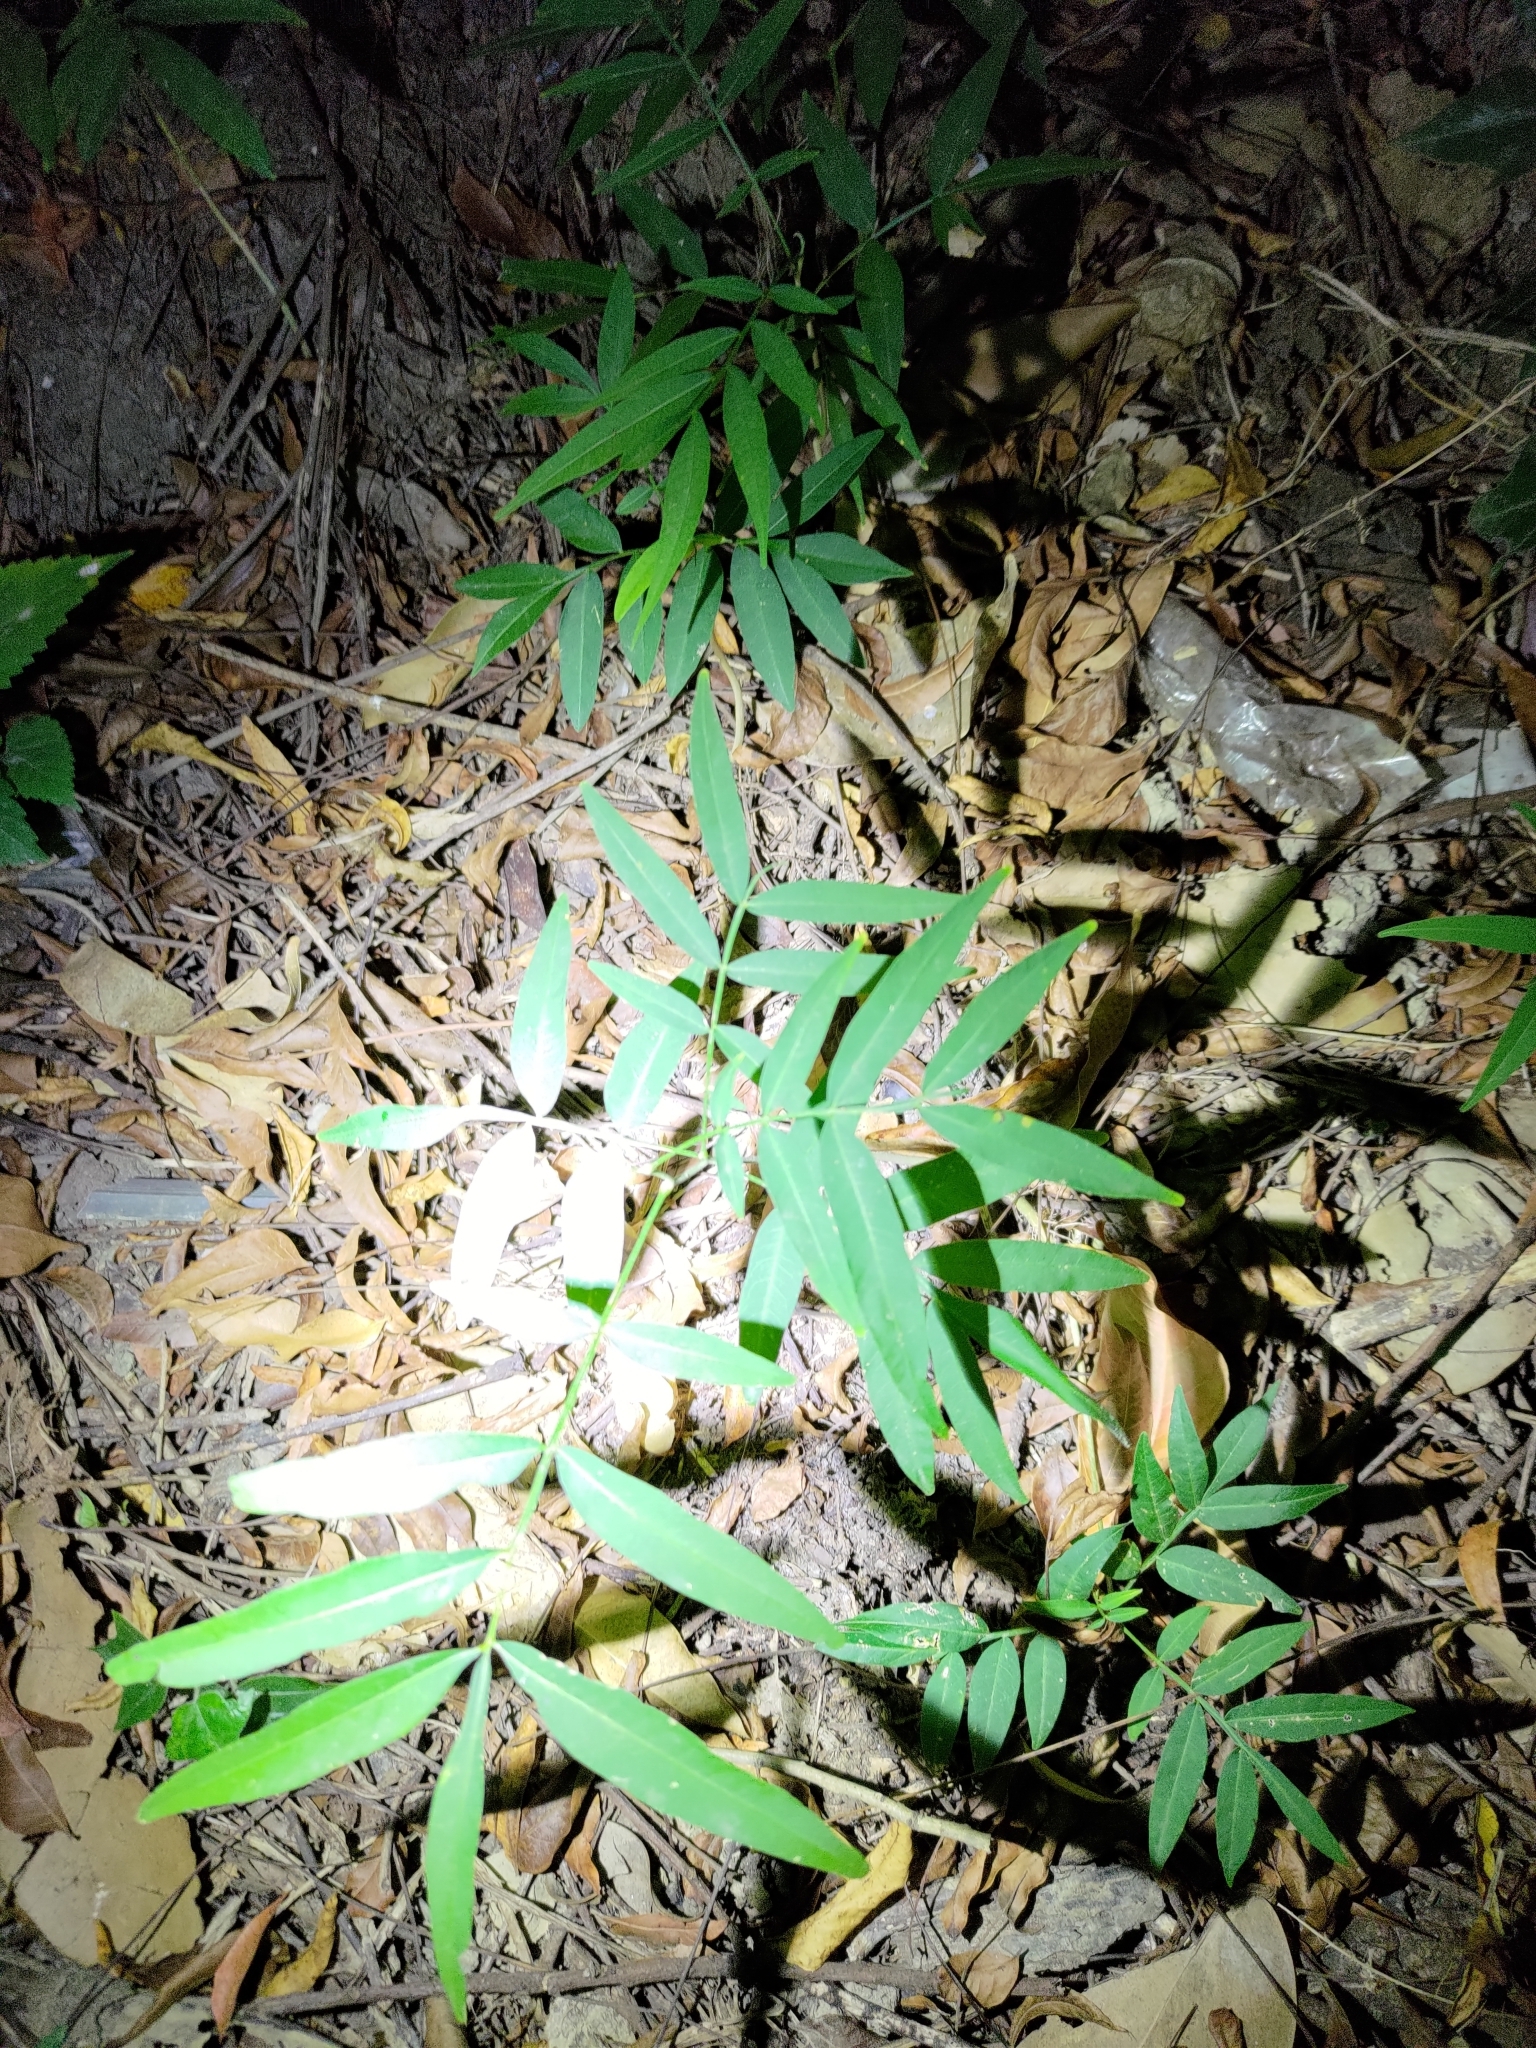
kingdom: Plantae
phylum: Tracheophyta
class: Magnoliopsida
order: Sapindales
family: Sapindaceae
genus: Sapindus
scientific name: Sapindus mukorossi
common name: Chinese soapberry
